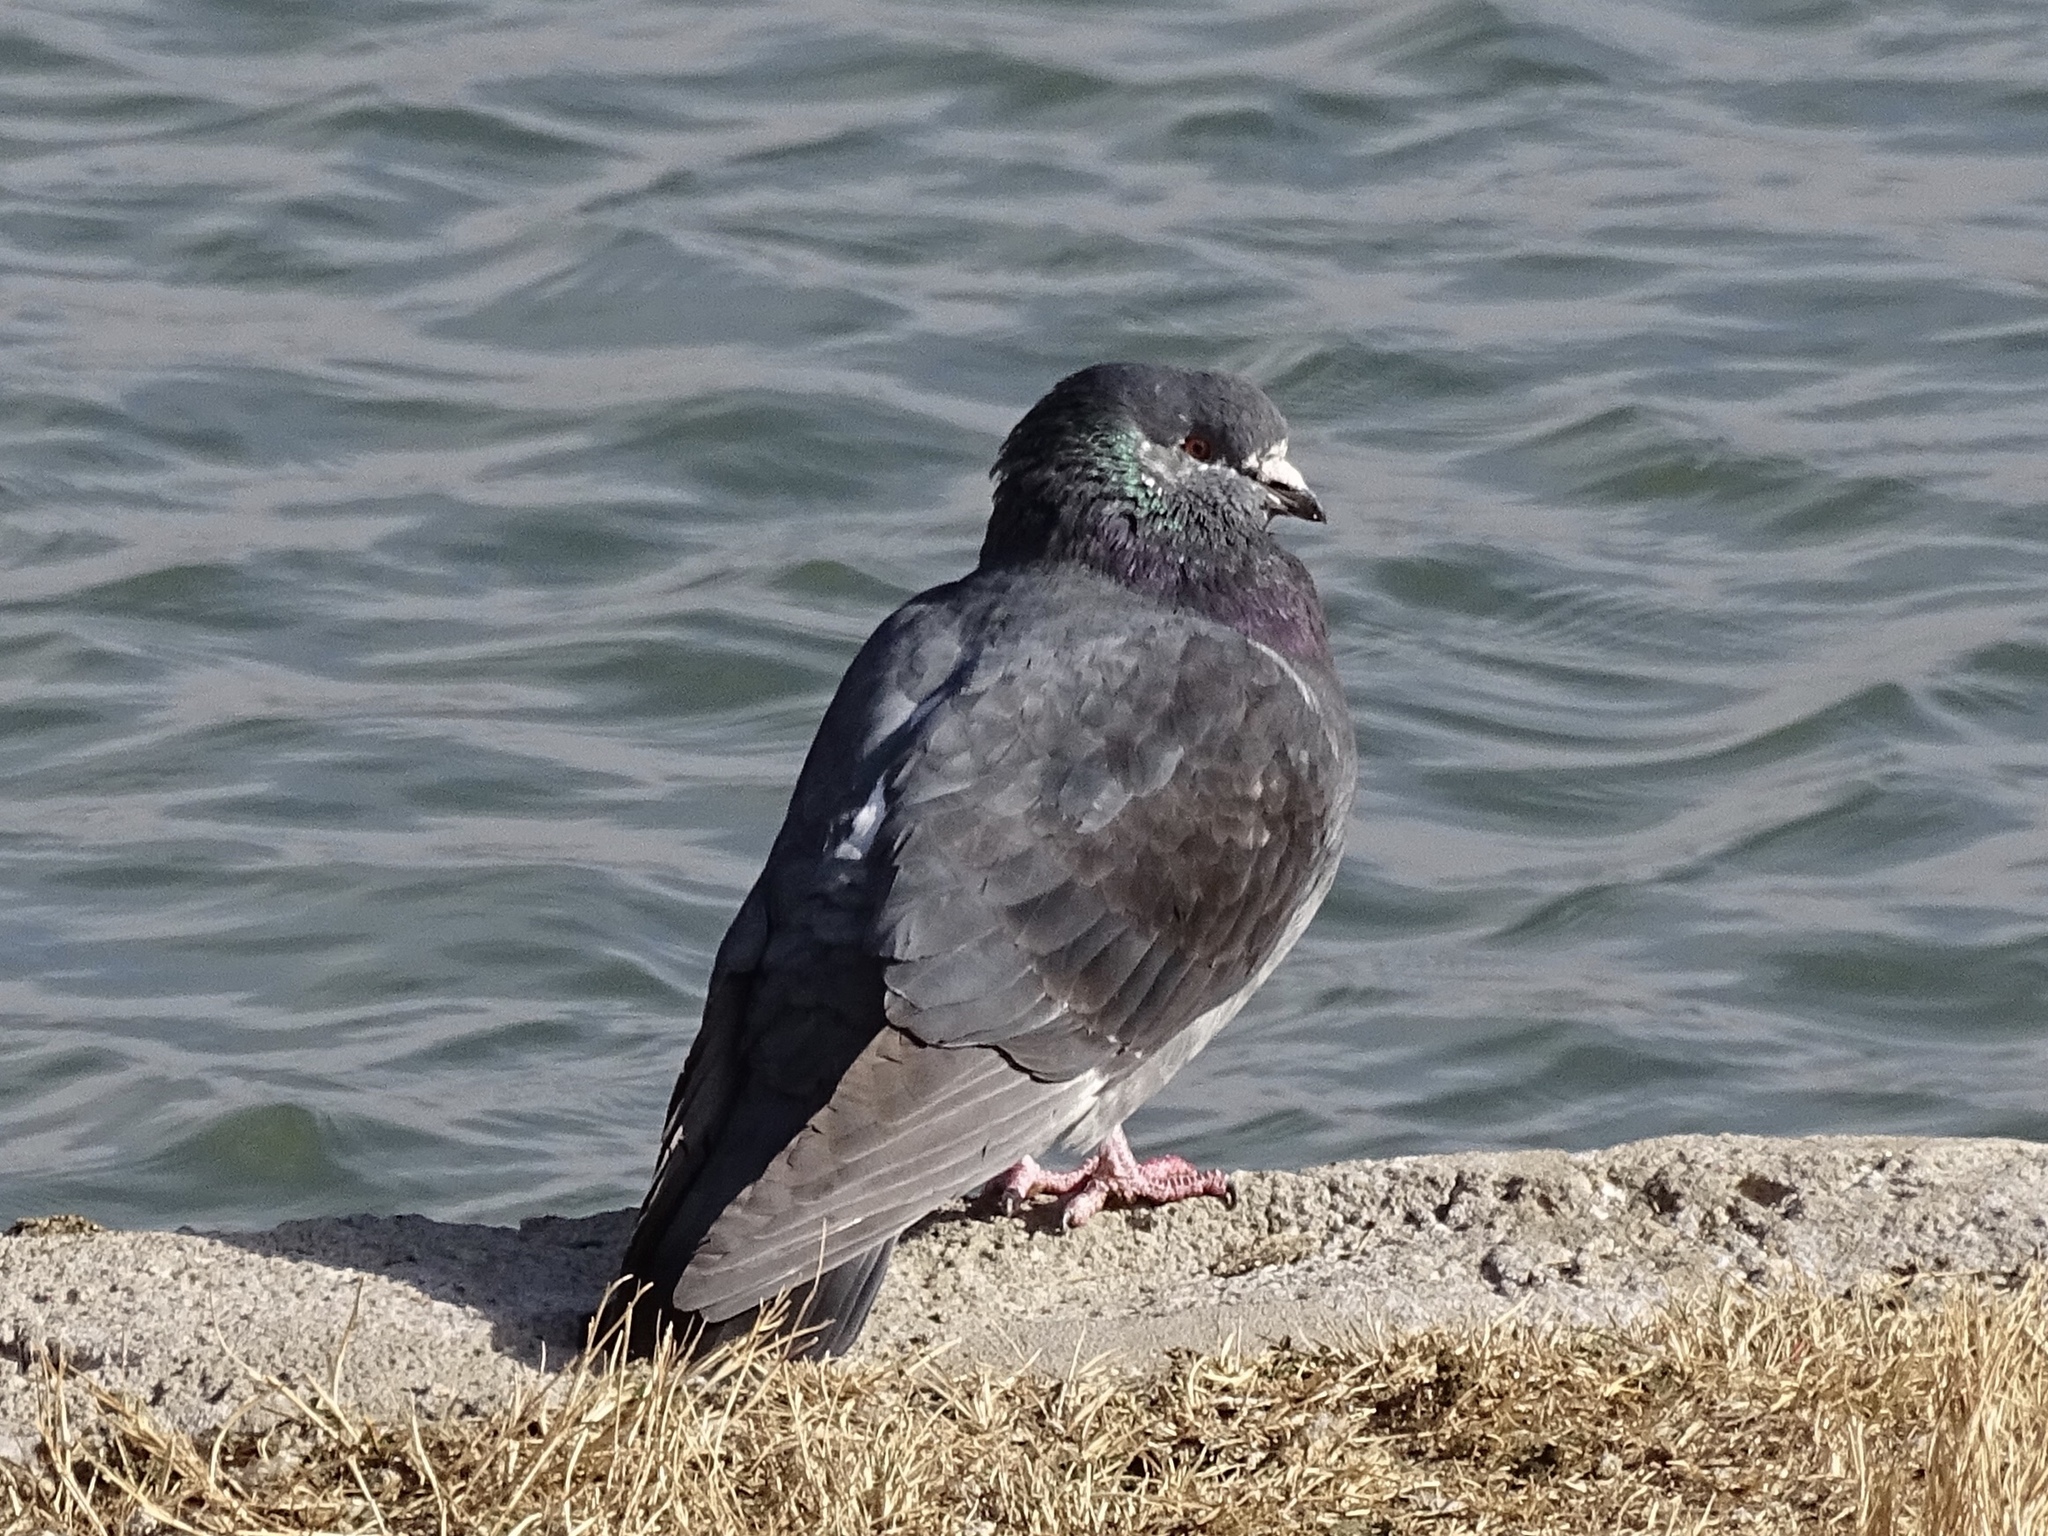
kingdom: Animalia
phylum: Chordata
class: Aves
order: Columbiformes
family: Columbidae
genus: Columba
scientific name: Columba livia
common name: Rock pigeon
